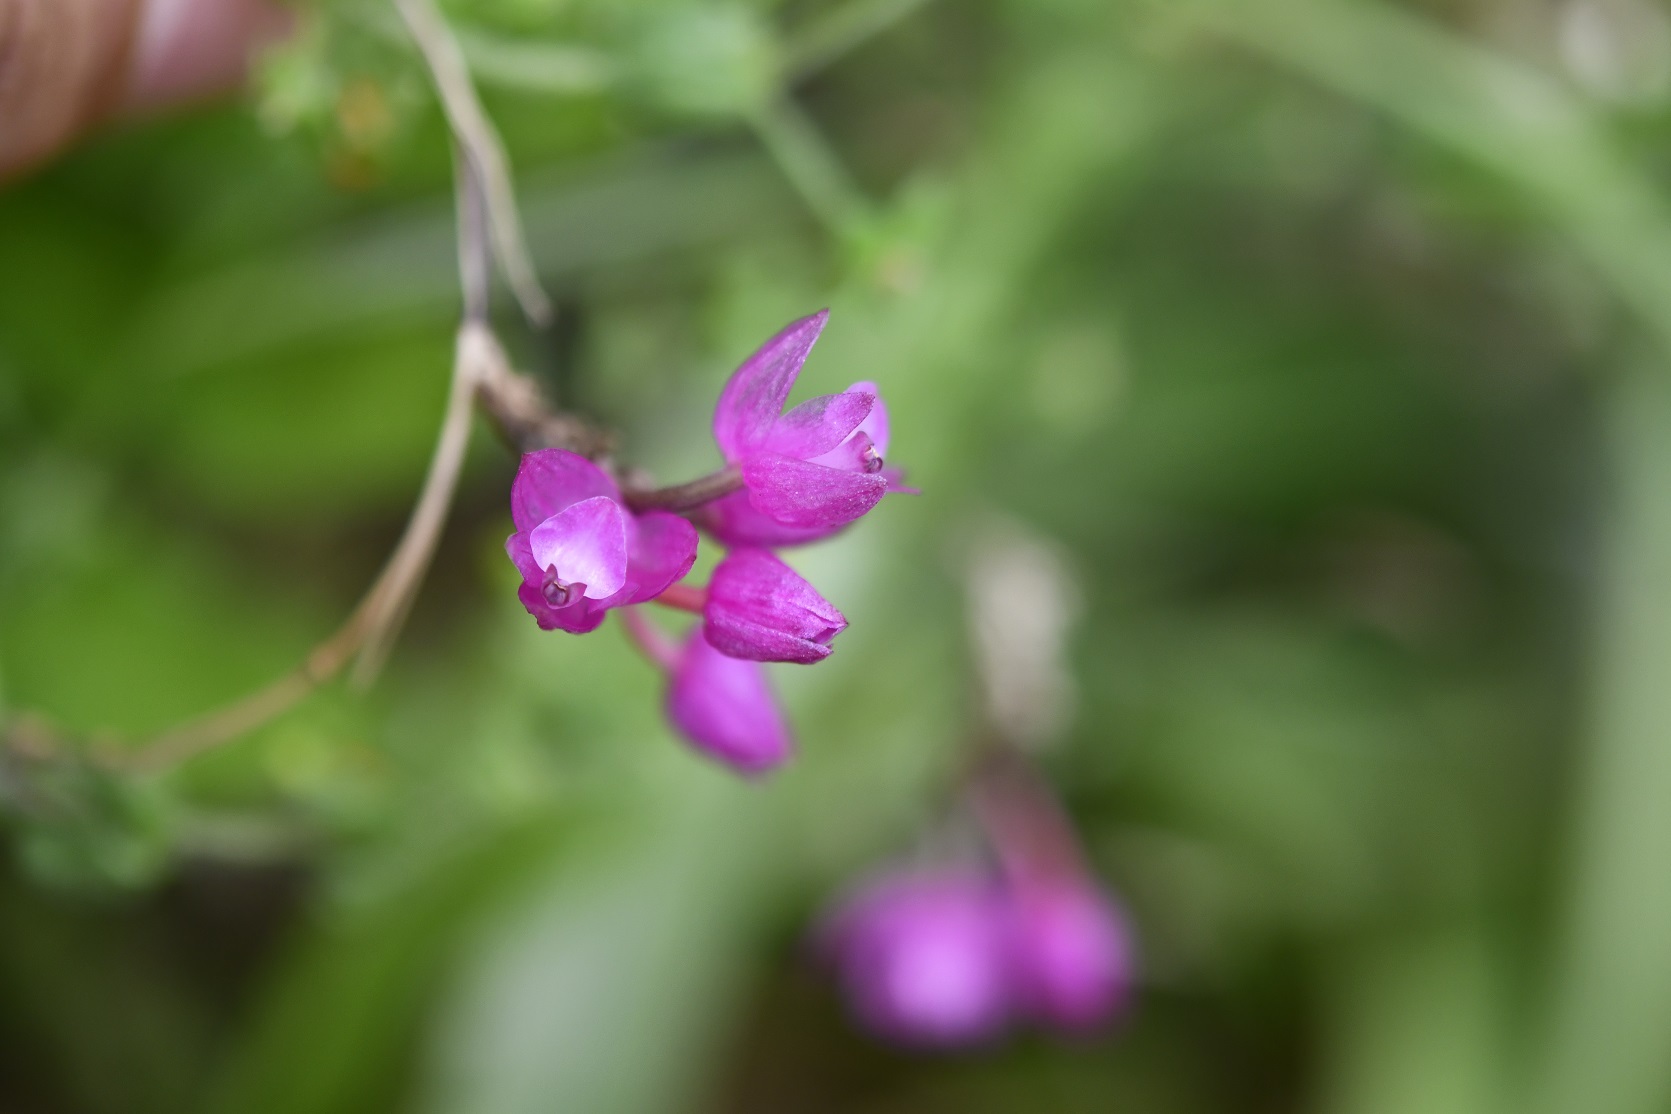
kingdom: Plantae
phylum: Tracheophyta
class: Liliopsida
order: Asparagales
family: Orchidaceae
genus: Domingoa
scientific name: Domingoa purpurea
